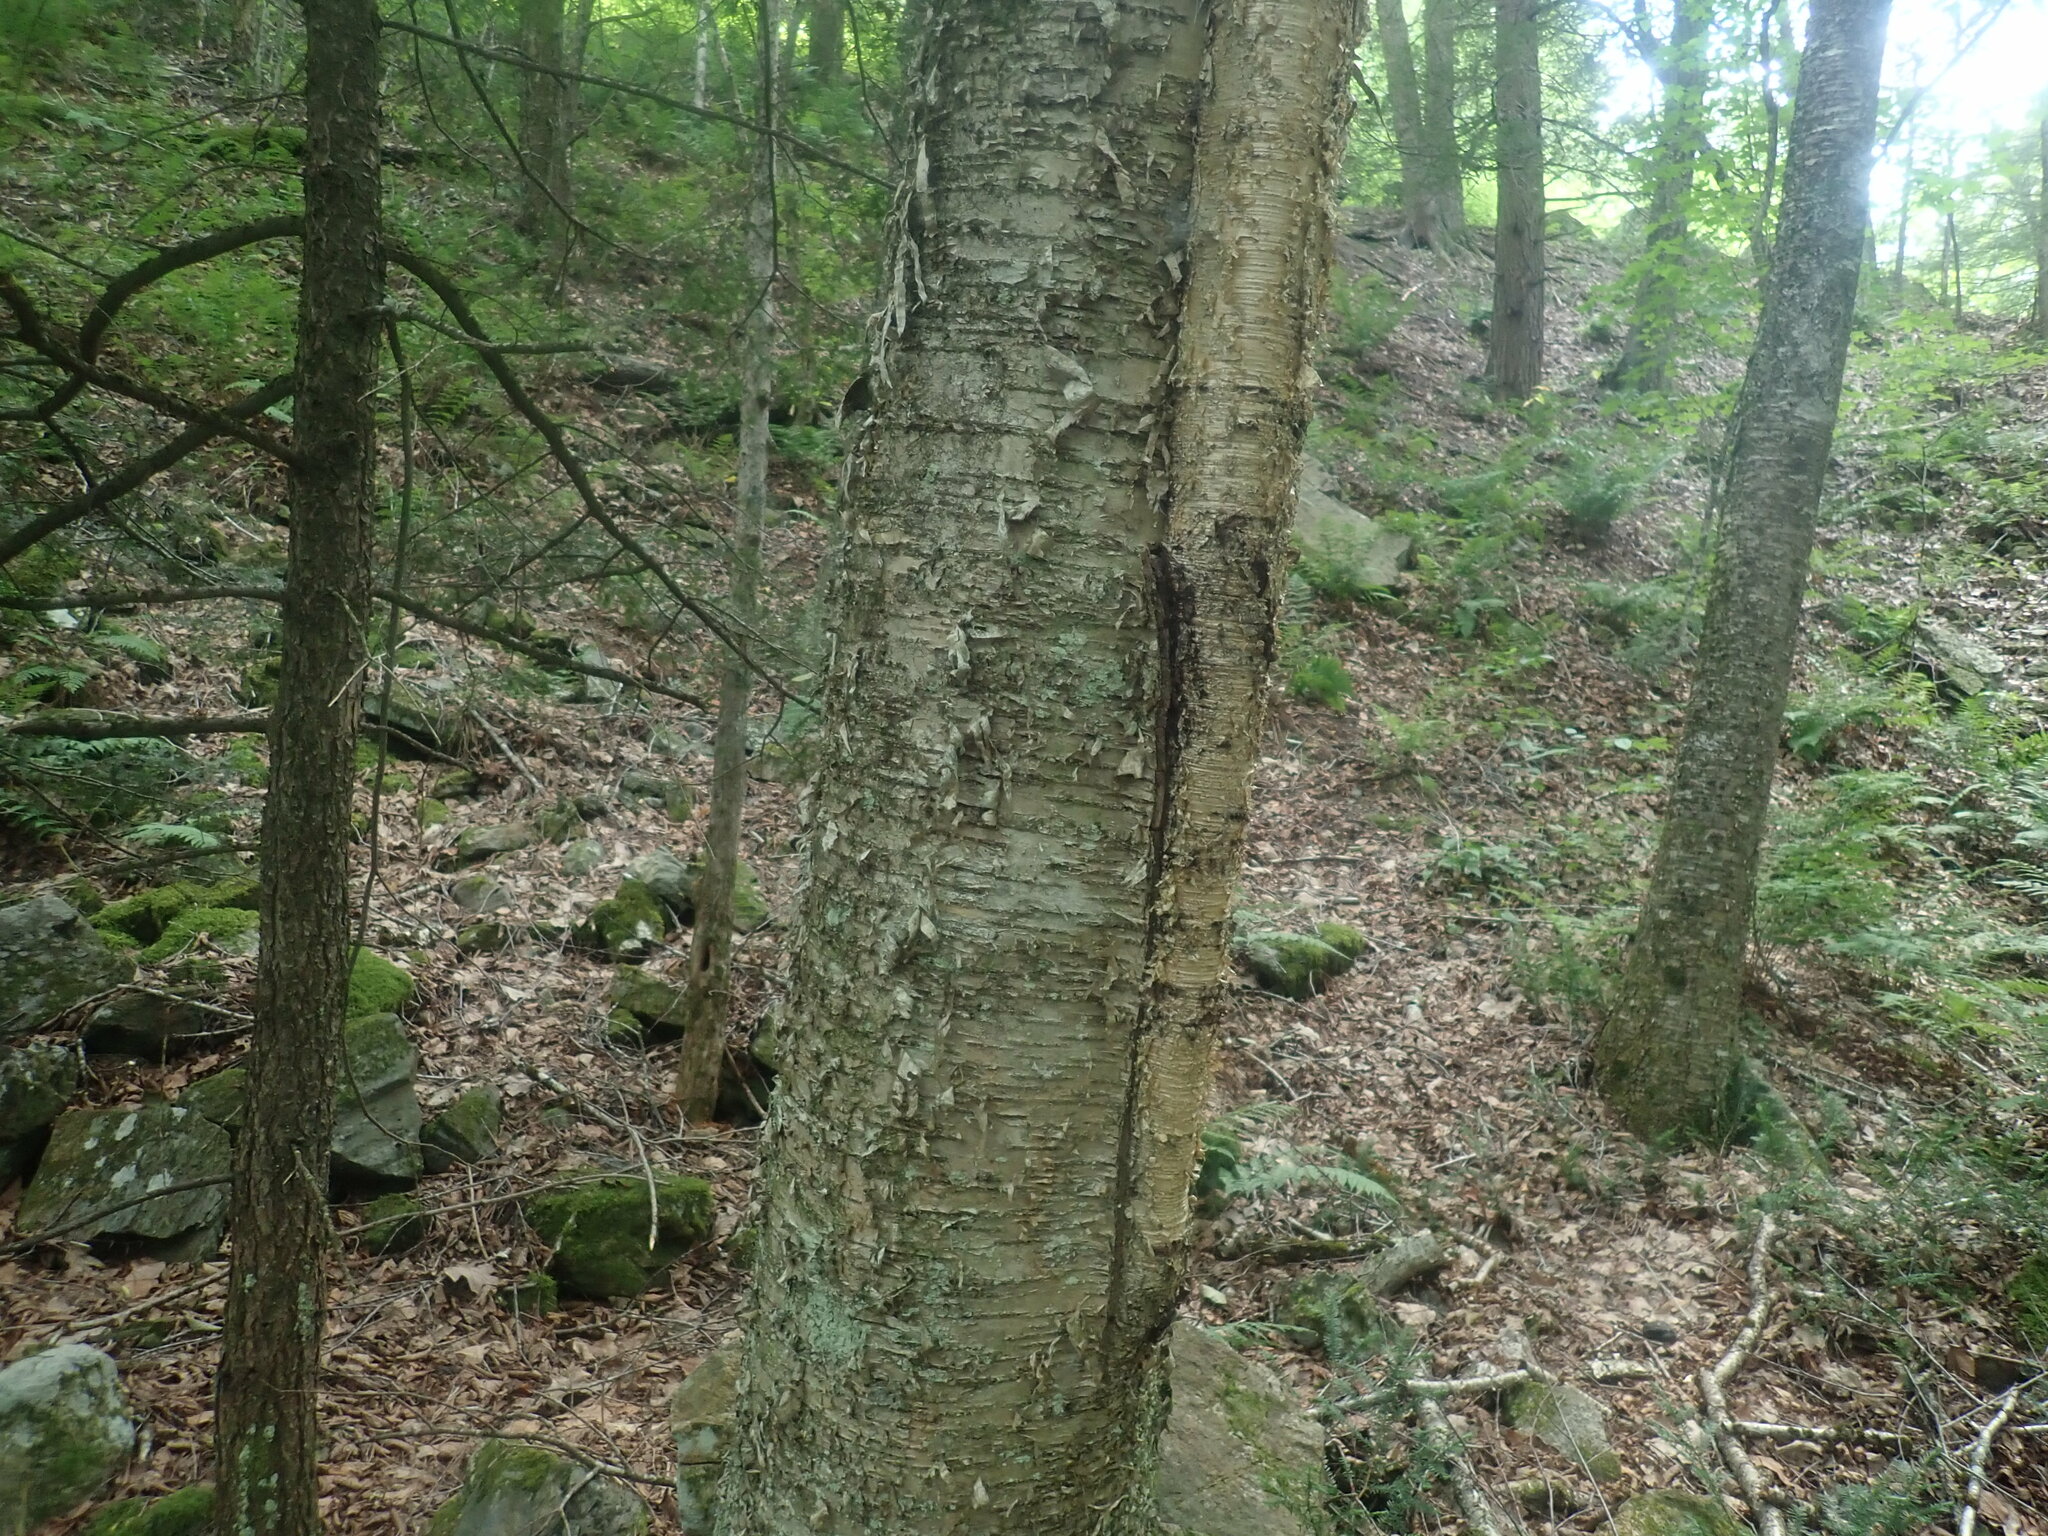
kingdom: Plantae
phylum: Tracheophyta
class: Magnoliopsida
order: Fagales
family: Betulaceae
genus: Betula
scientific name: Betula alleghaniensis
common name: Yellow birch
